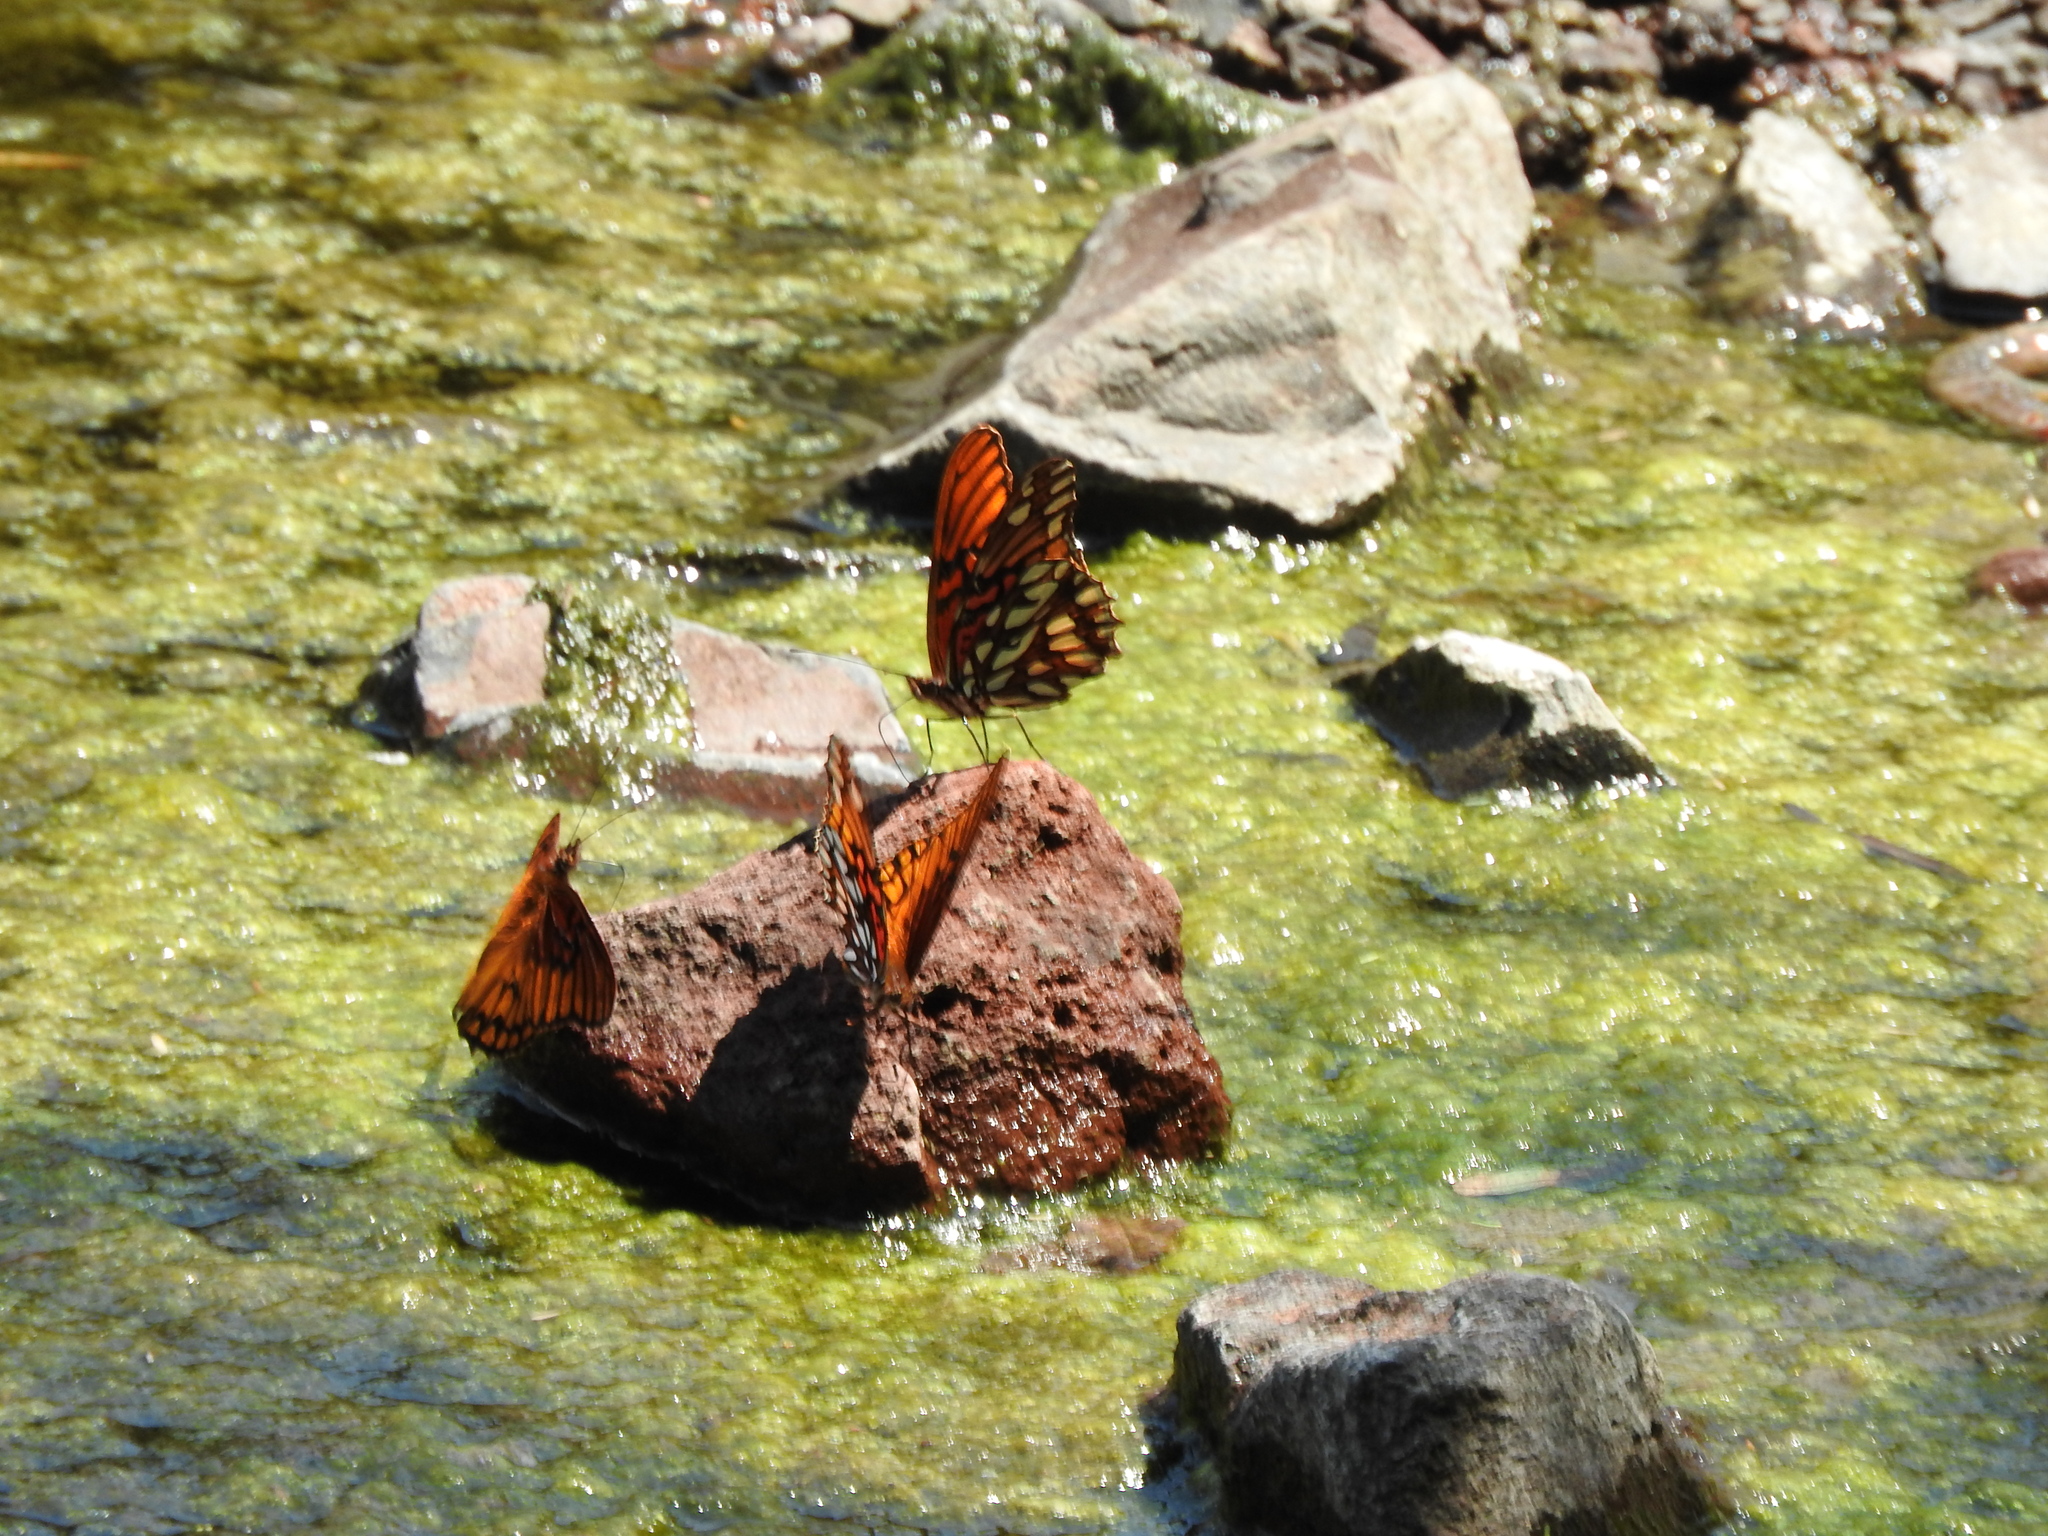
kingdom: Animalia
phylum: Arthropoda
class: Insecta
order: Lepidoptera
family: Nymphalidae
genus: Dione
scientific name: Dione moneta
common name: Mexican silverspot
